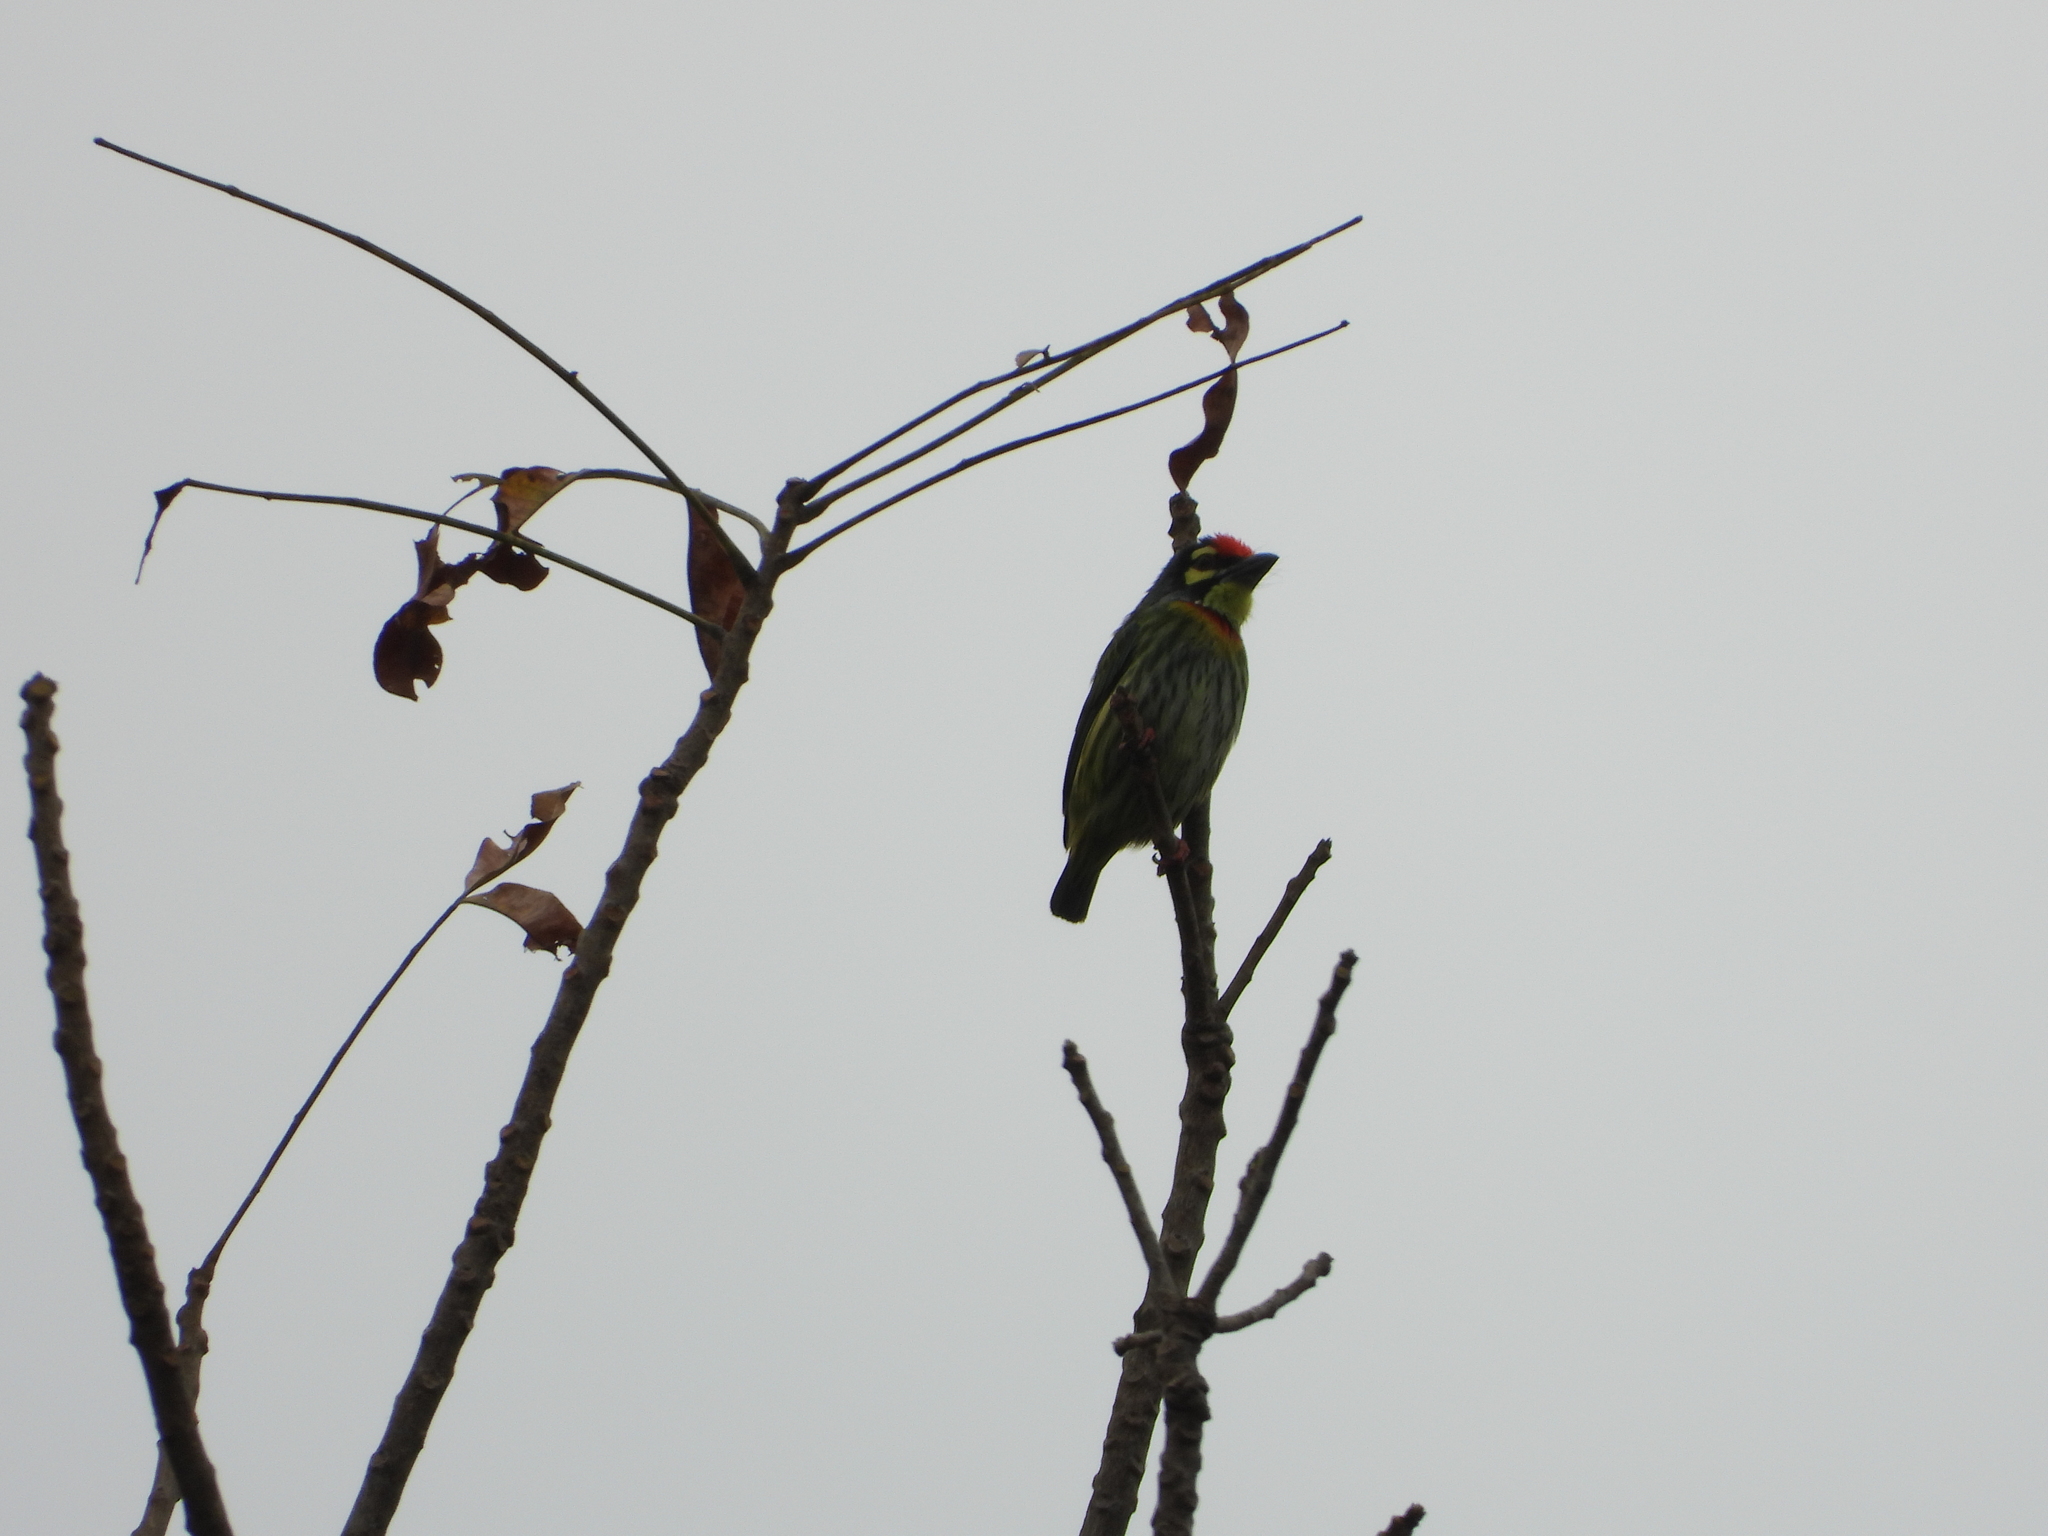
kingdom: Animalia
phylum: Chordata
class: Aves
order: Piciformes
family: Megalaimidae
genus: Psilopogon
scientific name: Psilopogon haemacephalus
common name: Coppersmith barbet
